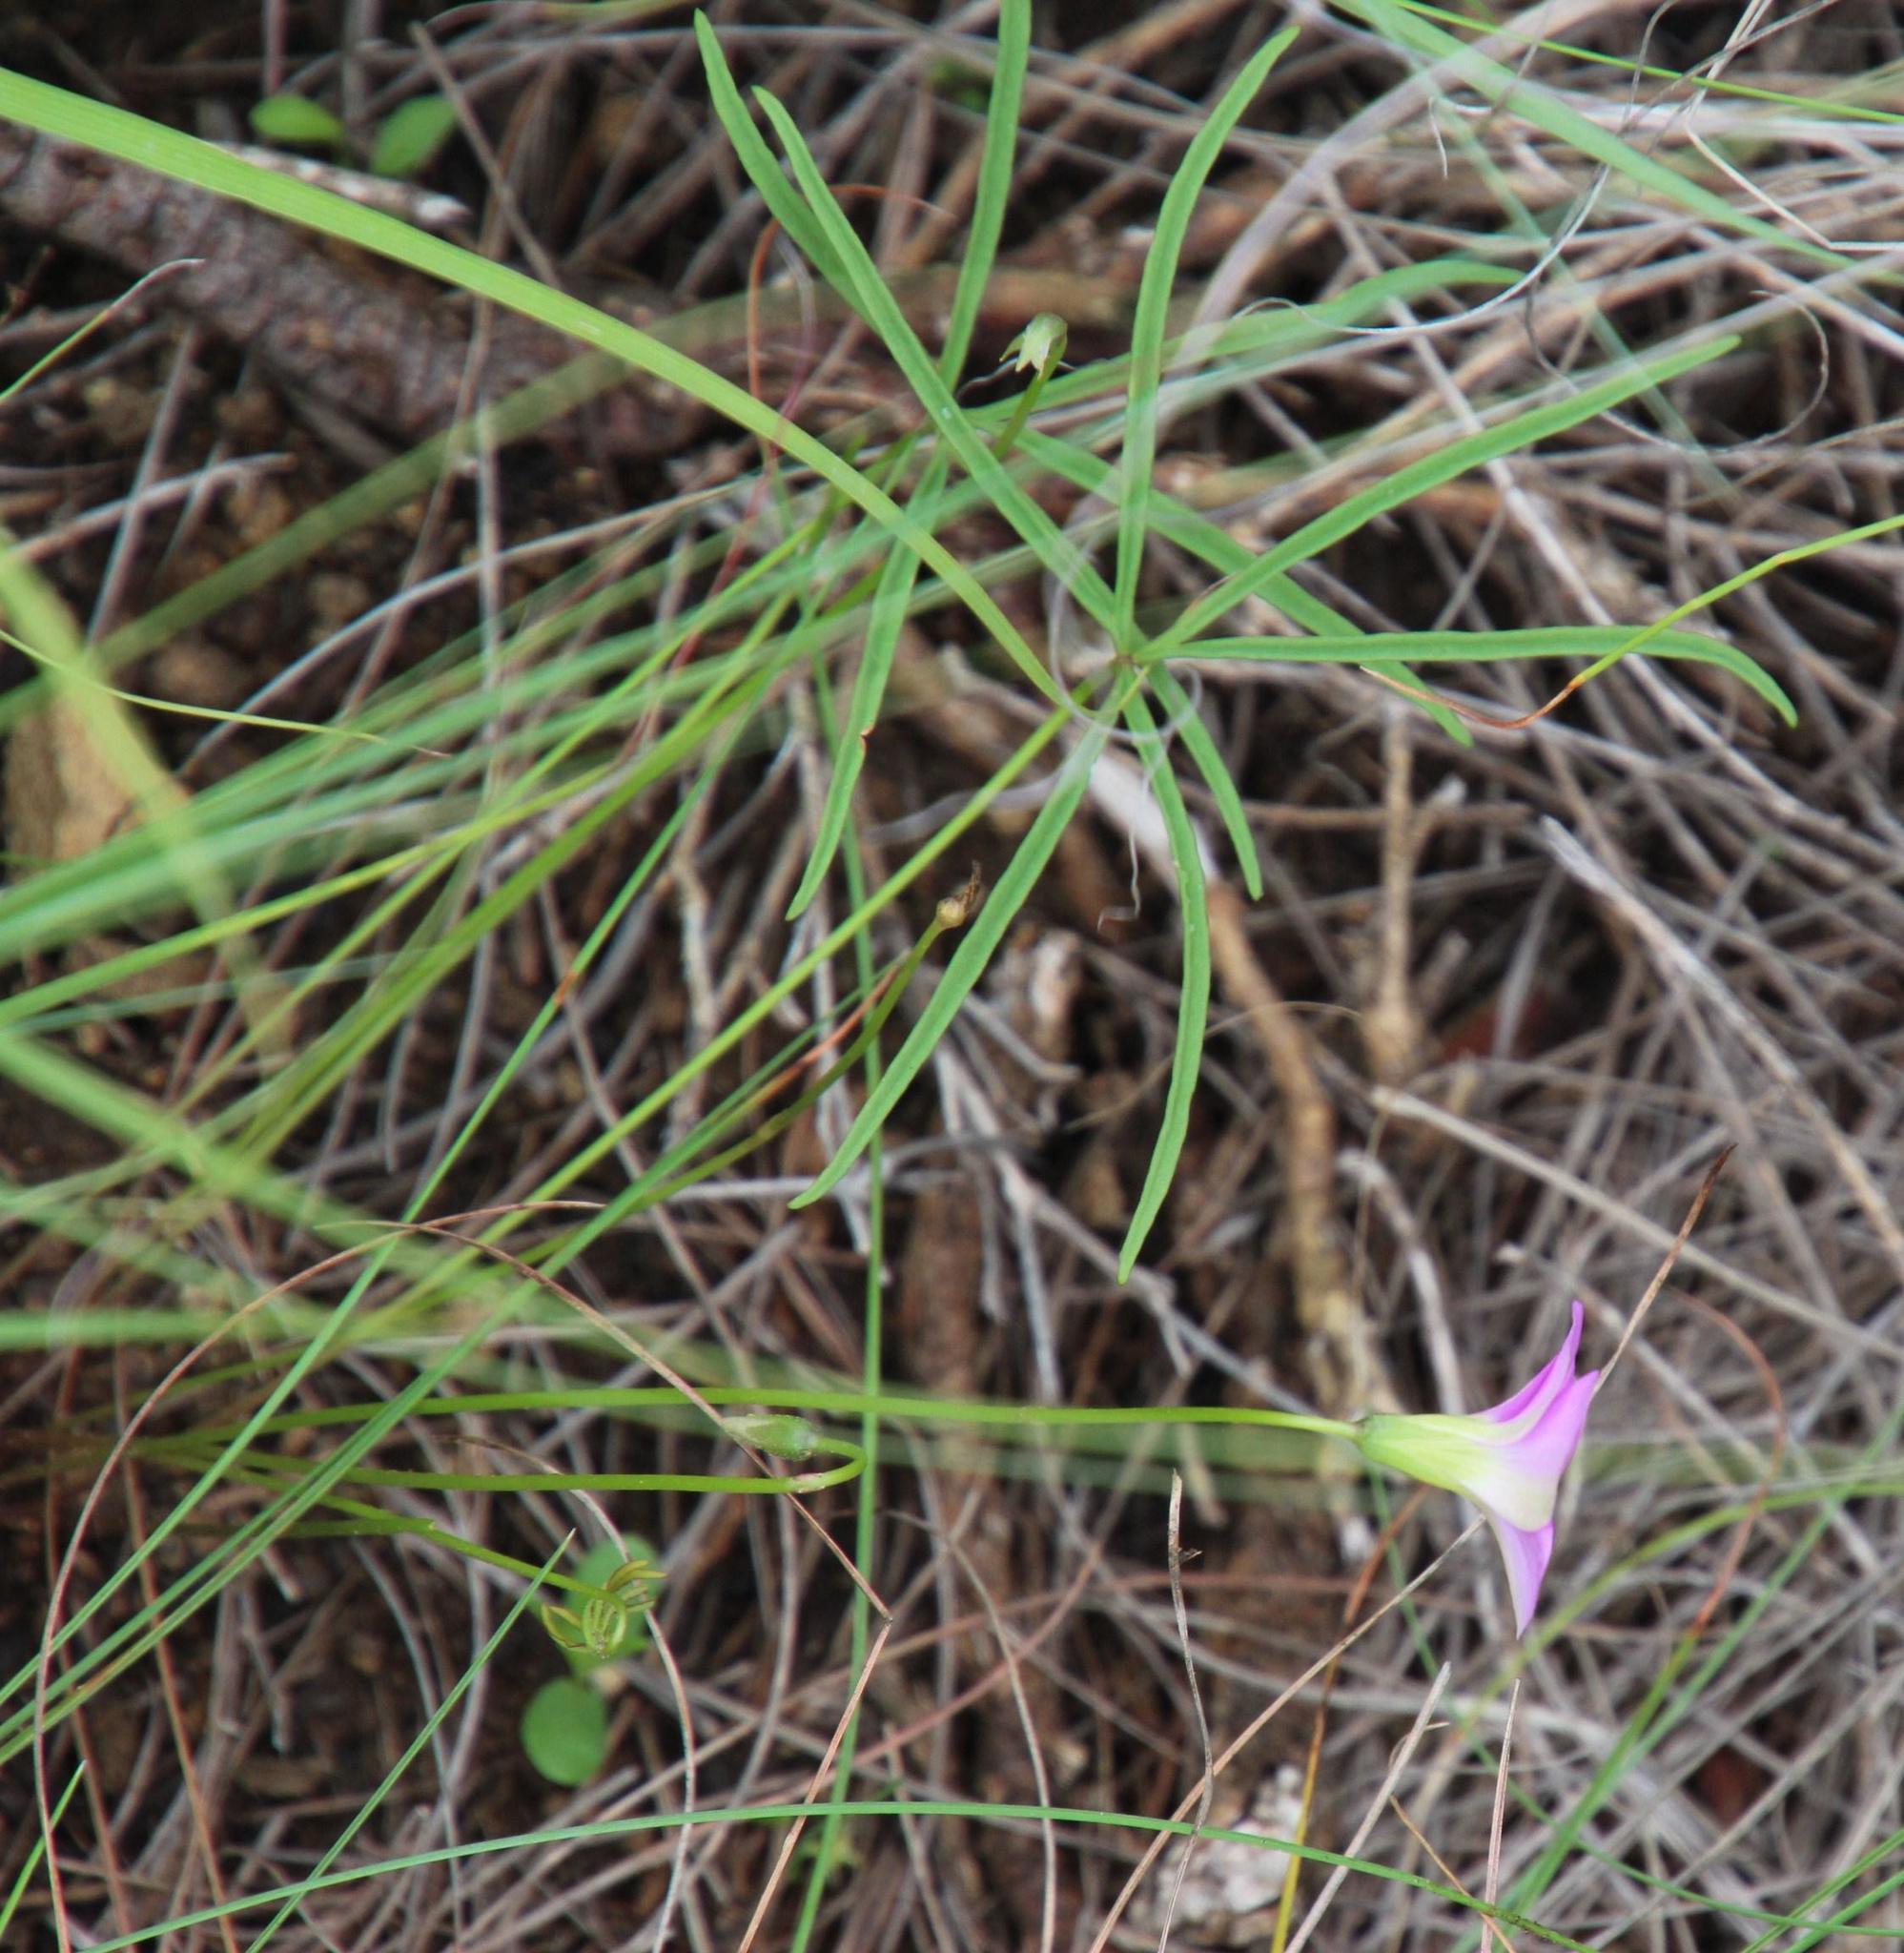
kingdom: Plantae
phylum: Tracheophyta
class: Magnoliopsida
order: Oxalidales
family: Oxalidaceae
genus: Oxalis
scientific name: Oxalis smithiana
